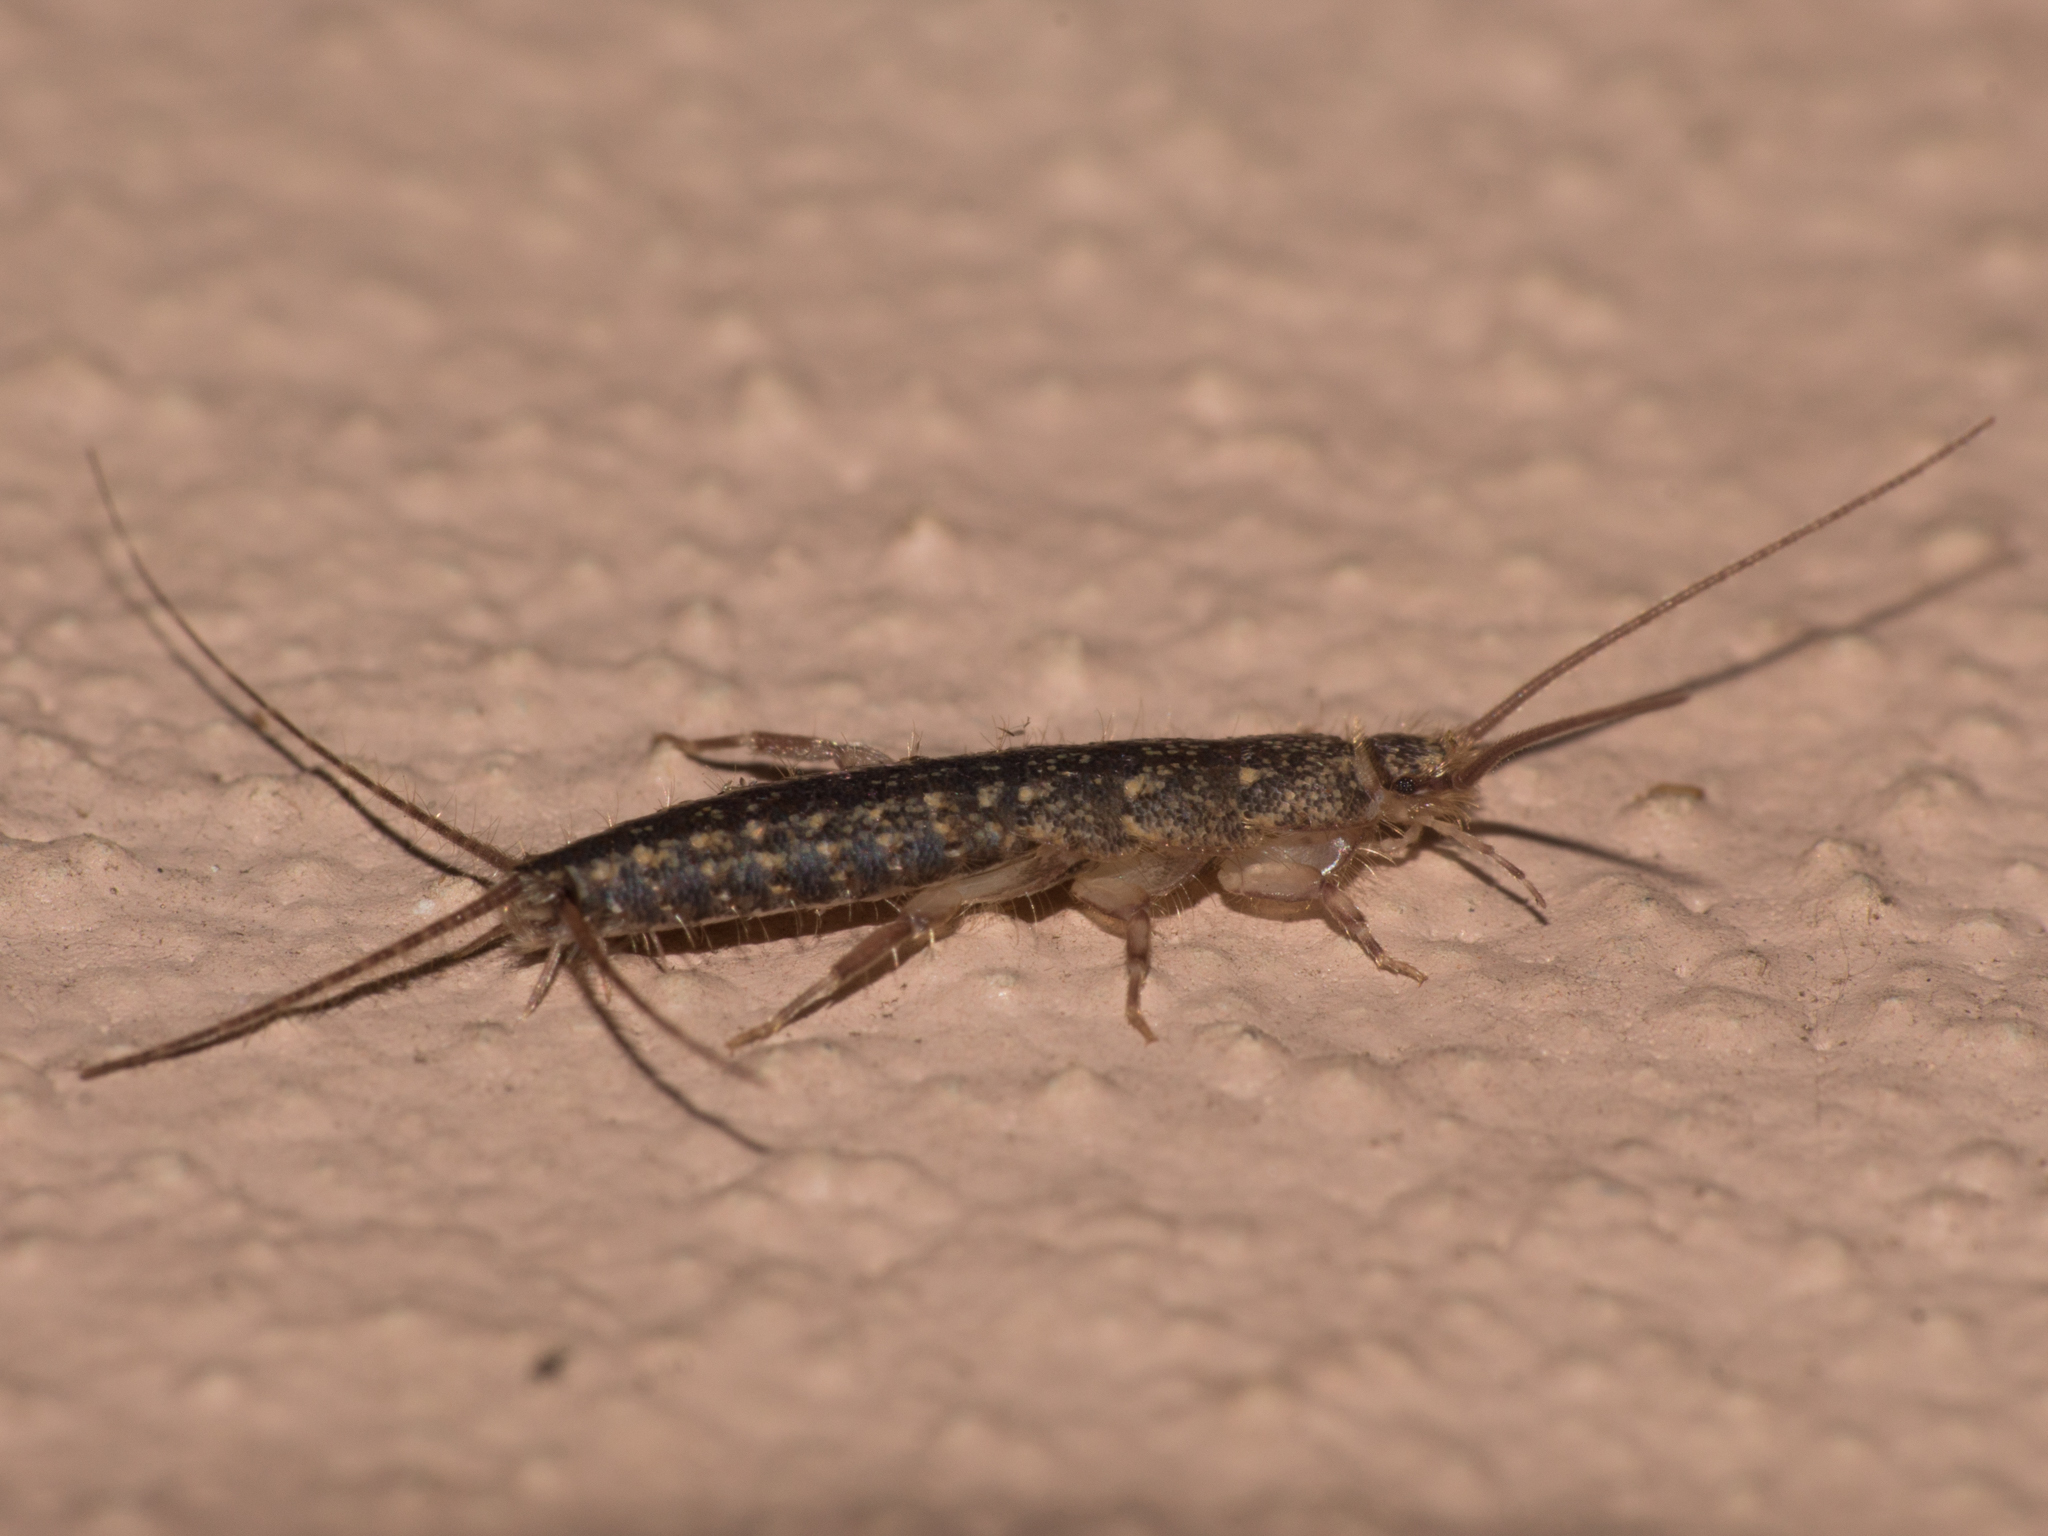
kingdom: Animalia
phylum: Arthropoda
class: Insecta
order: Zygentoma
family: Lepismatidae
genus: Ctenolepisma
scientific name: Ctenolepisma lineata
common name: Four-lined silverfish
